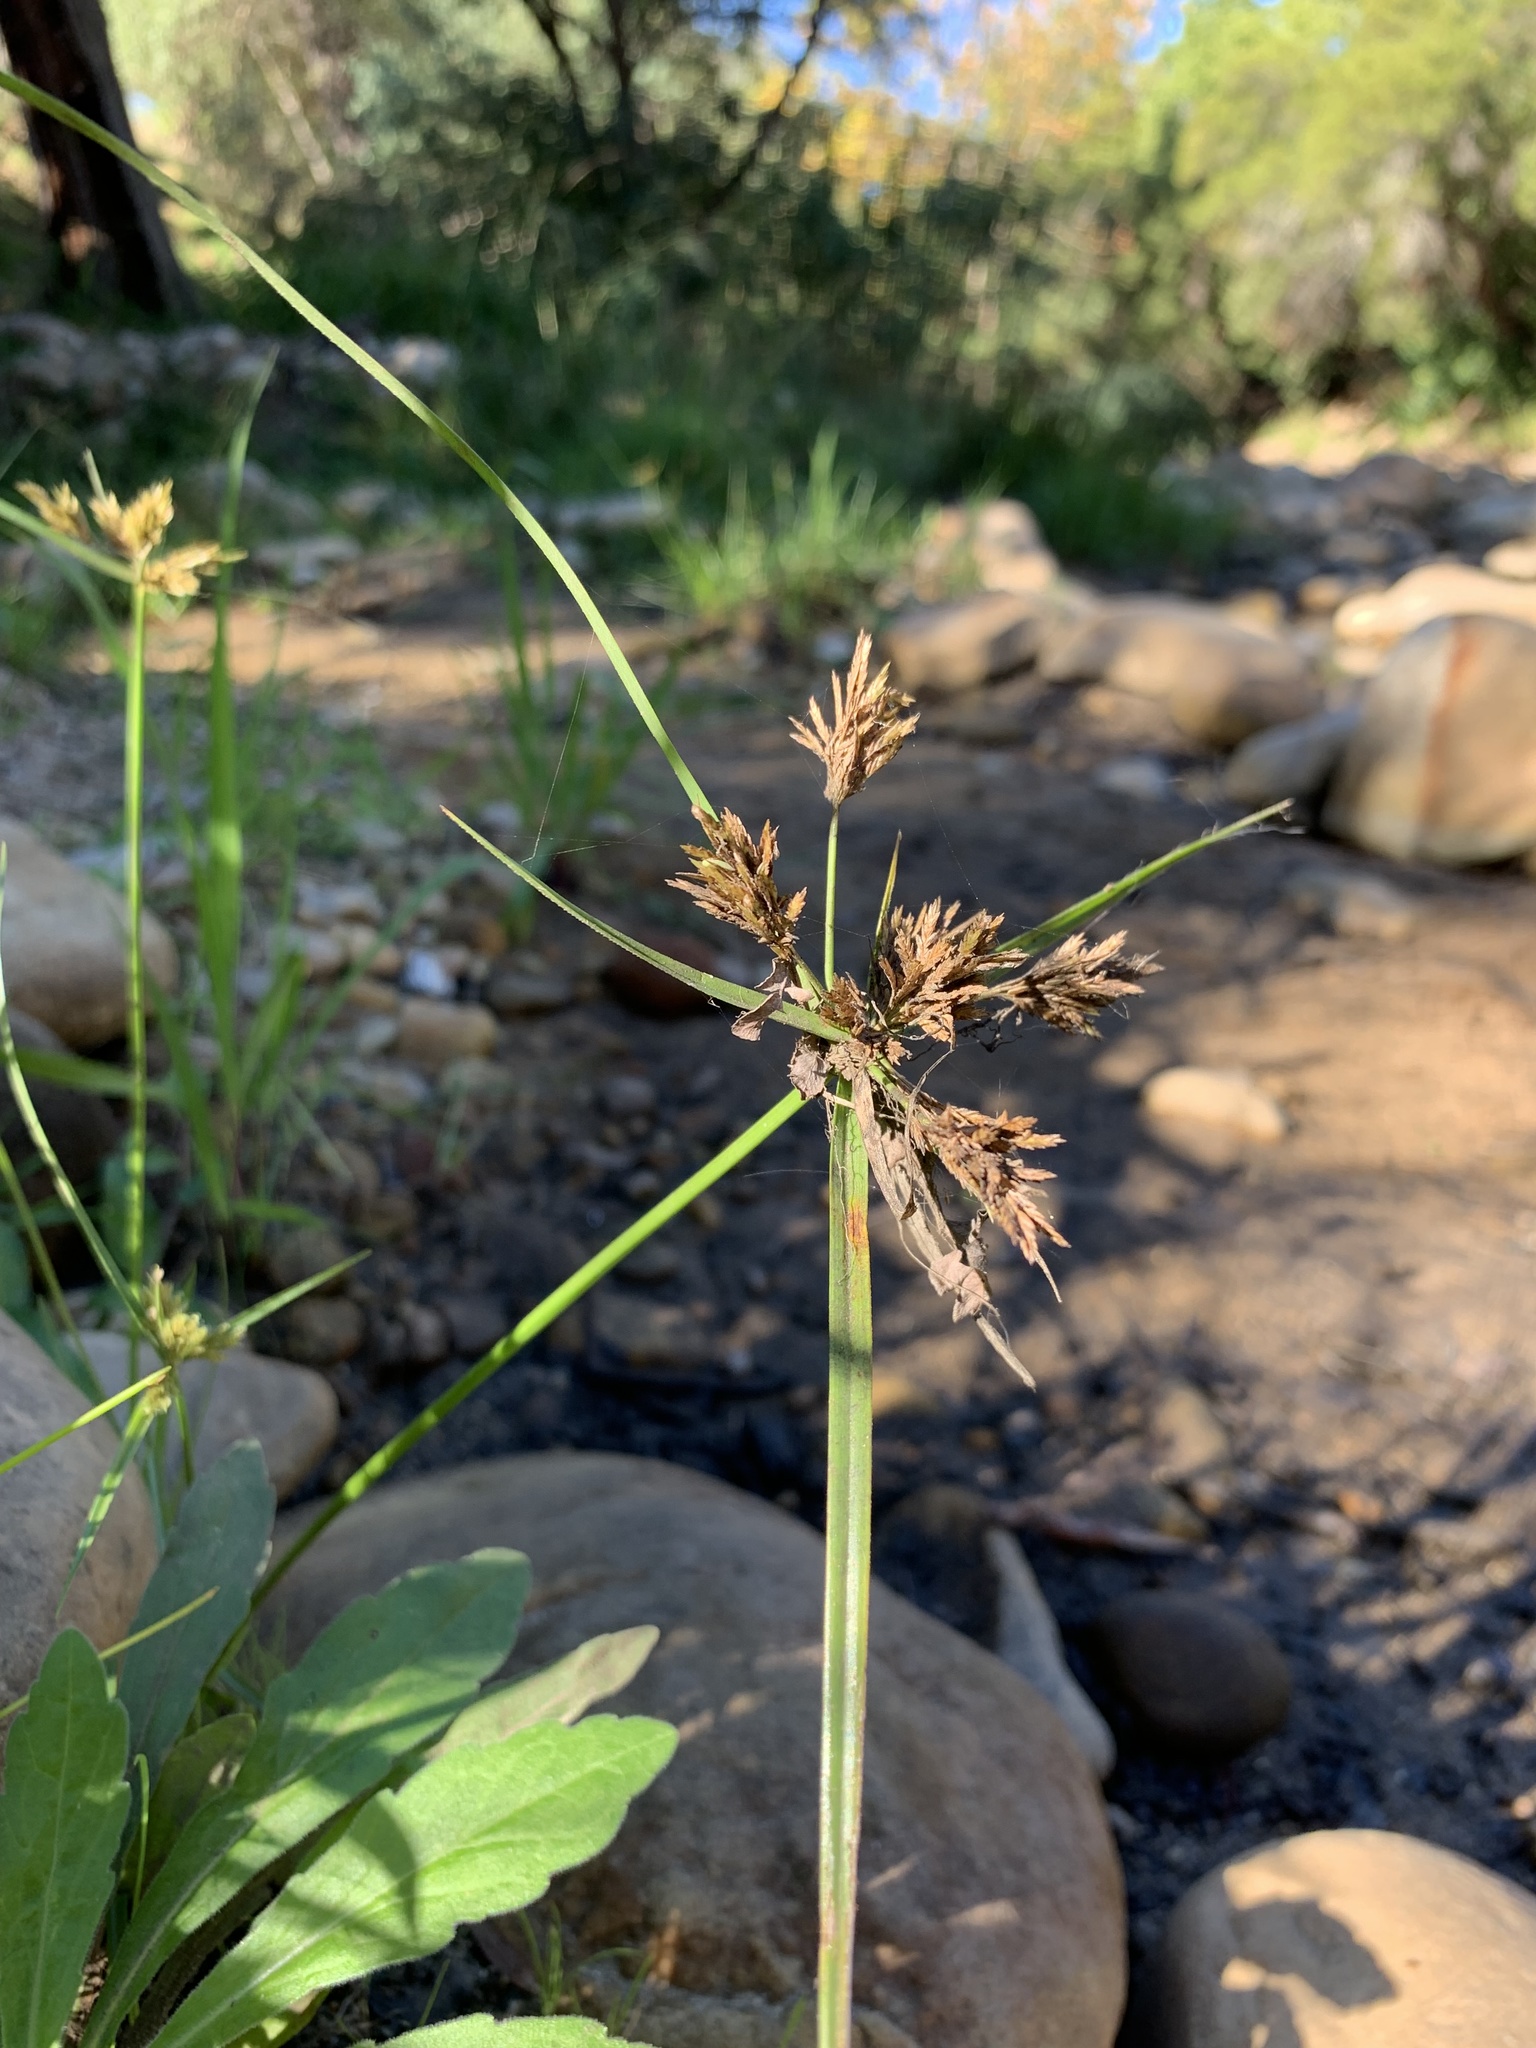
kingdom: Plantae
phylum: Tracheophyta
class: Liliopsida
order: Poales
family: Cyperaceae
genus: Cyperus
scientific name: Cyperus polystachyos
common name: Bunchy flat sedge
